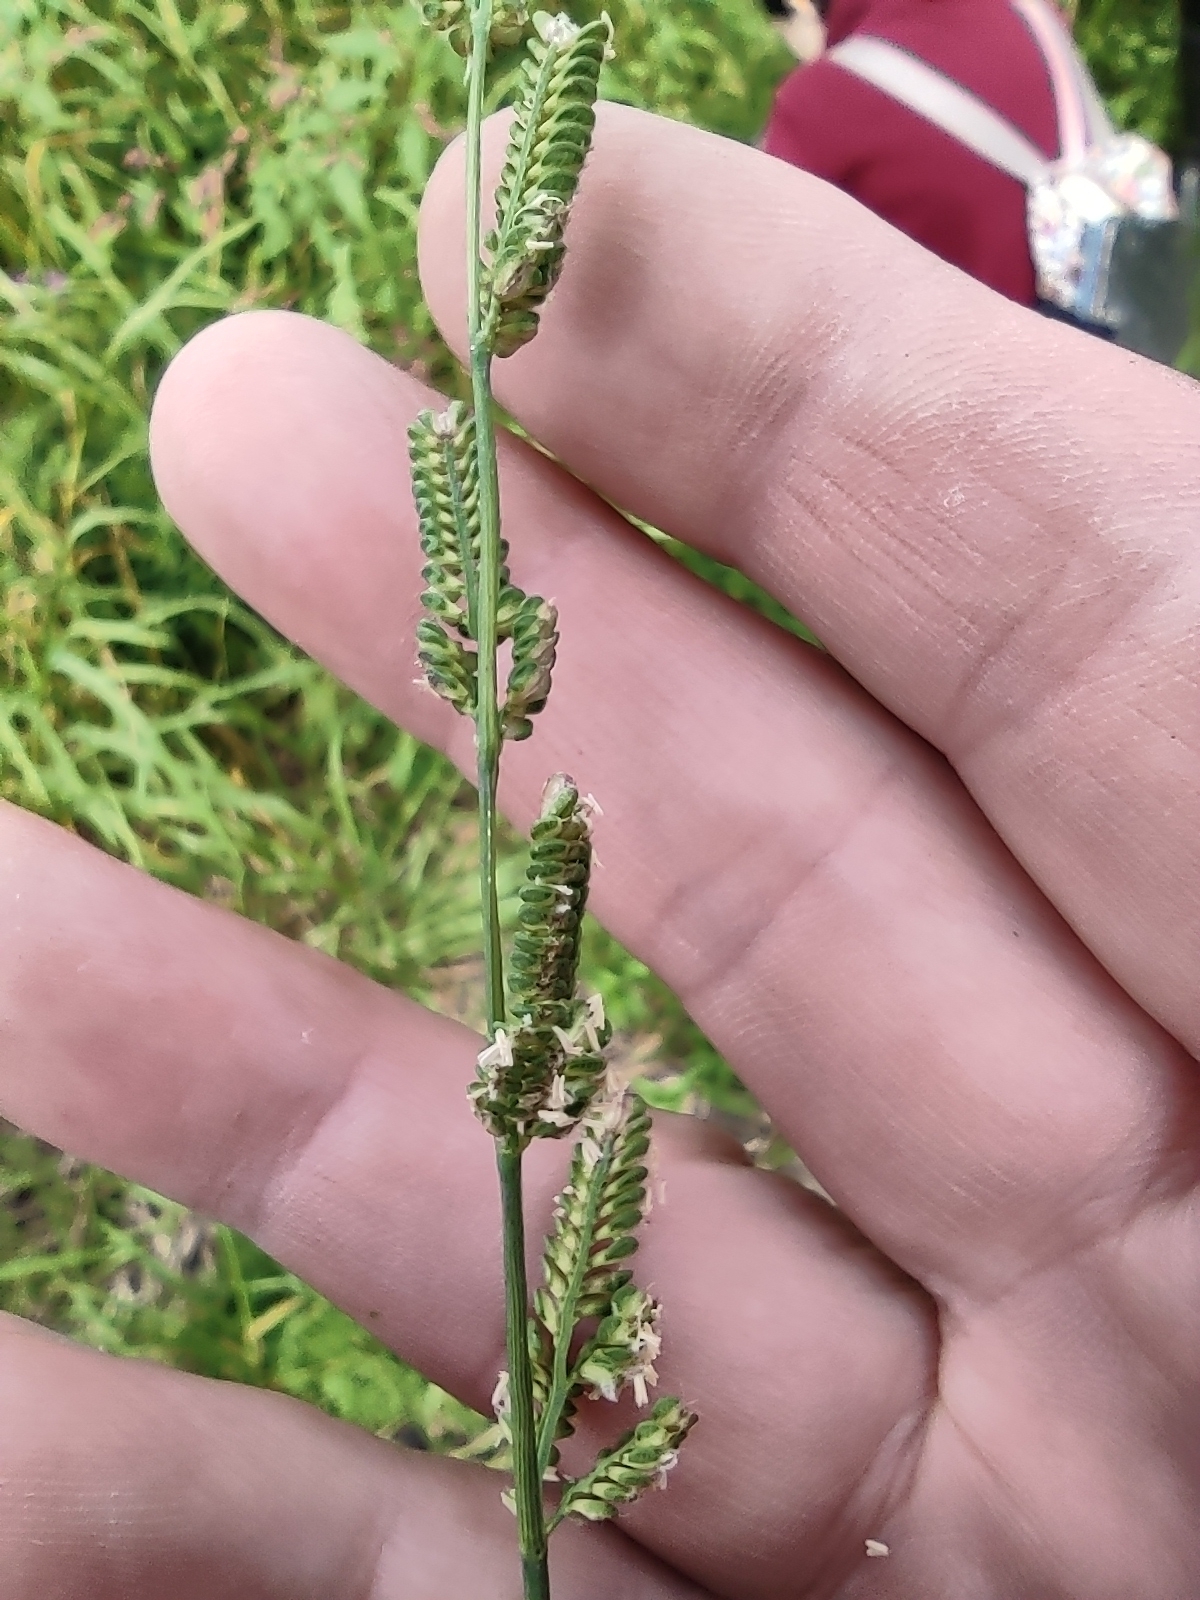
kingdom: Plantae
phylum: Tracheophyta
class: Liliopsida
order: Poales
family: Poaceae
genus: Beckmannia
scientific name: Beckmannia eruciformis
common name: European slough-grass
